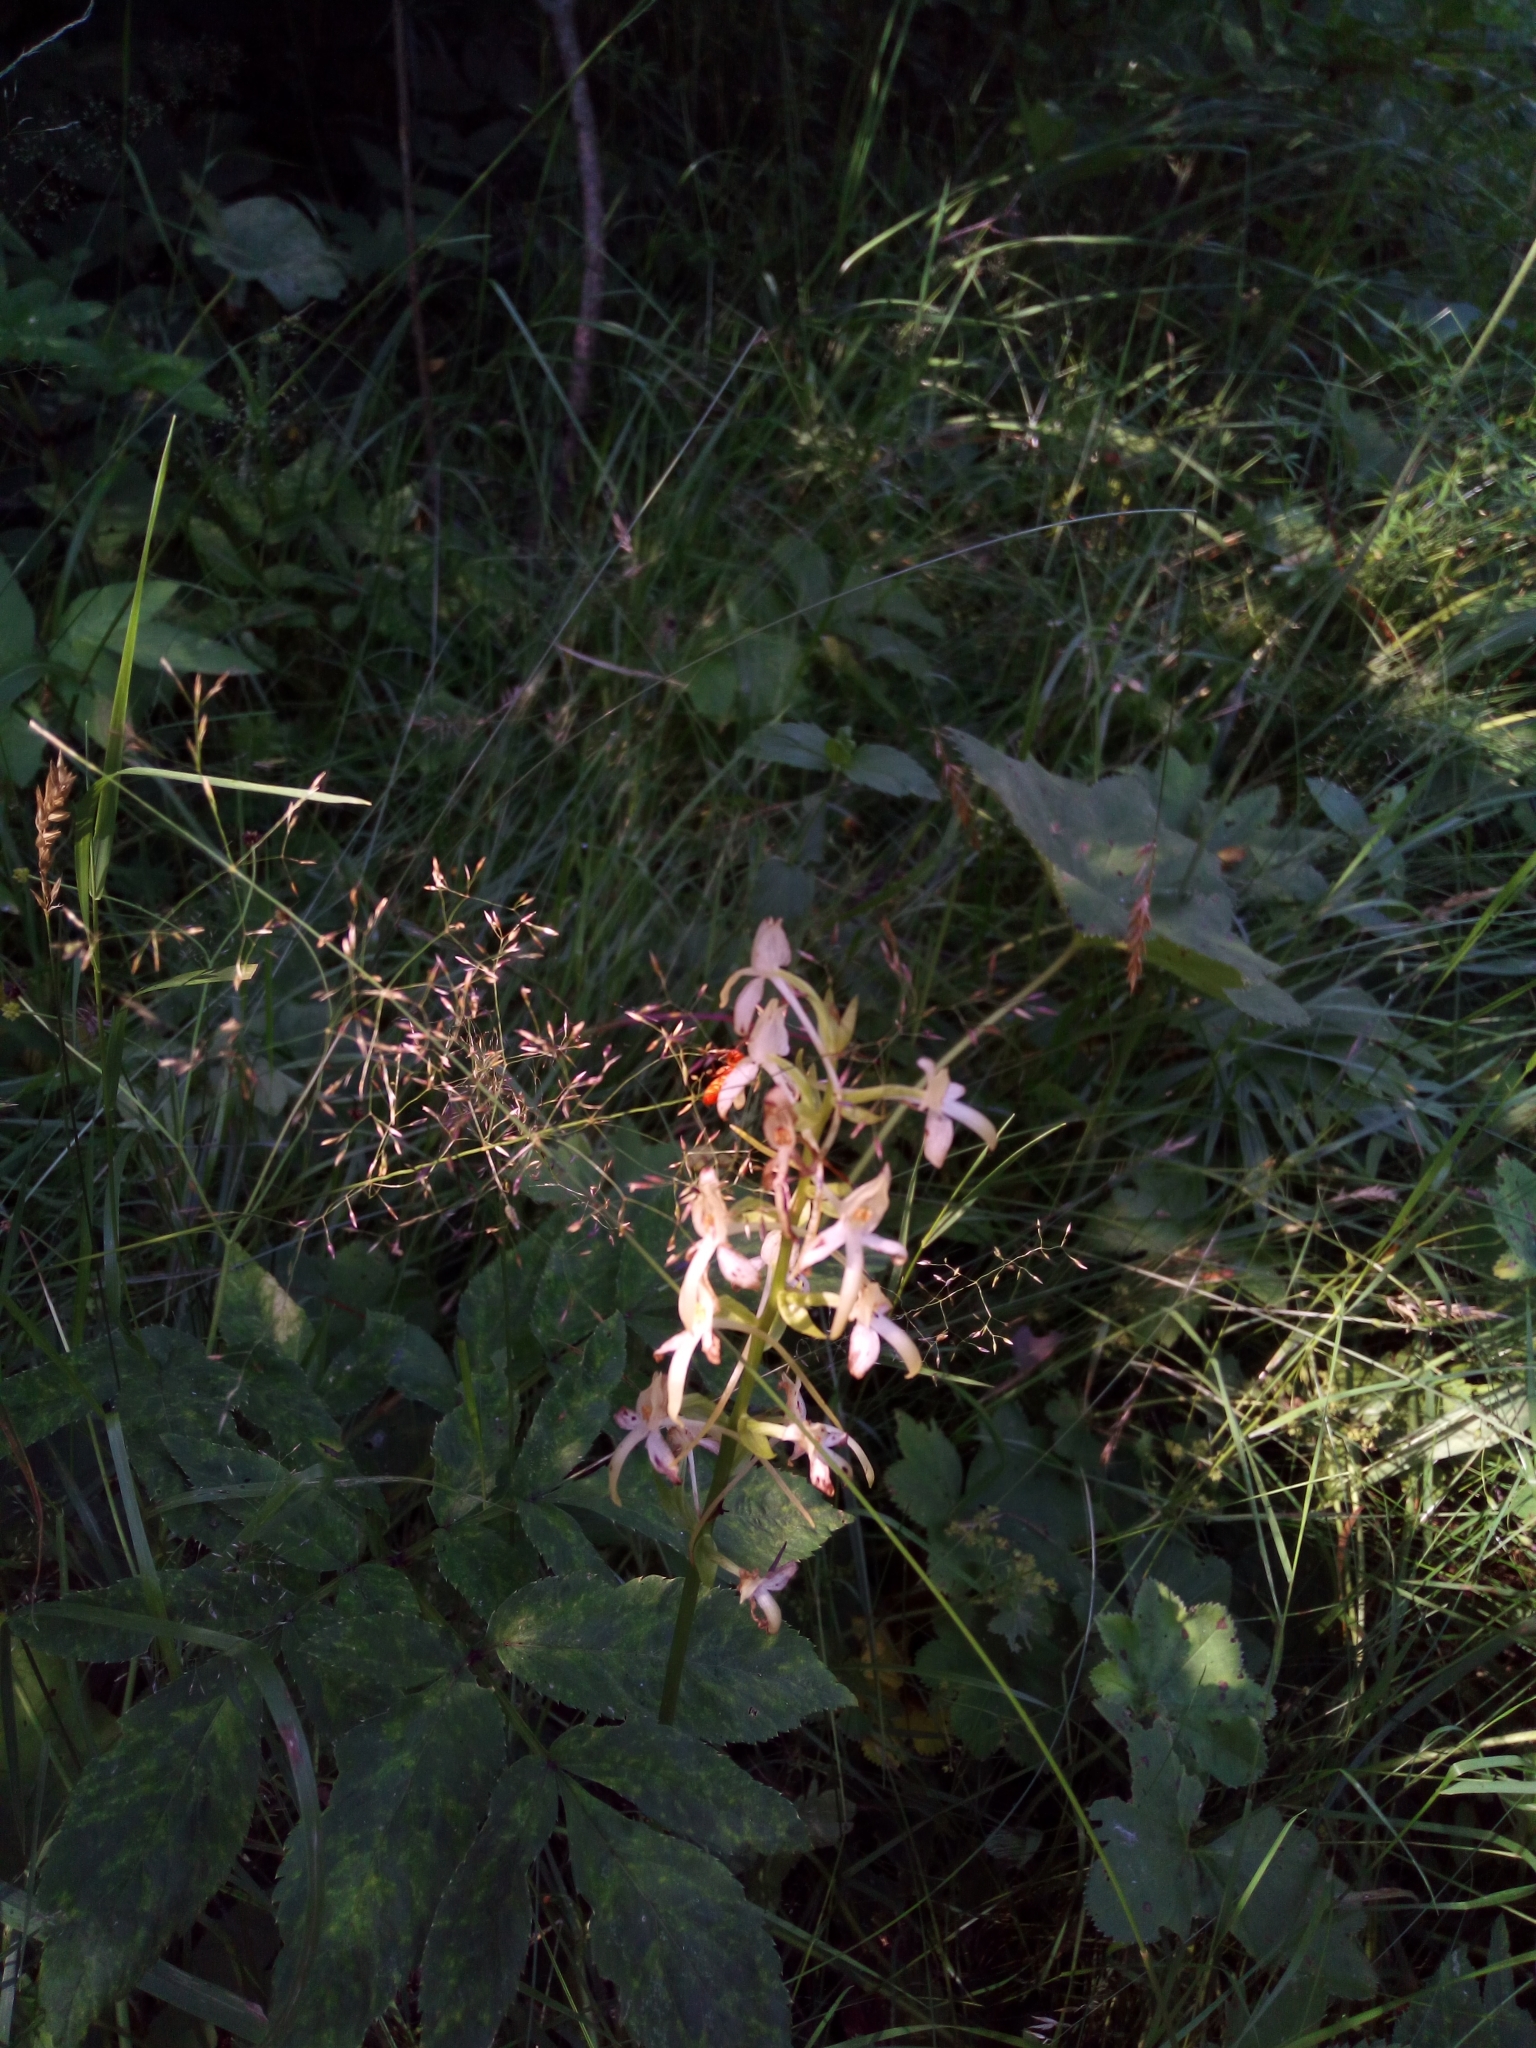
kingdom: Plantae
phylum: Tracheophyta
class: Liliopsida
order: Asparagales
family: Orchidaceae
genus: Platanthera
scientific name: Platanthera bifolia
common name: Lesser butterfly-orchid
